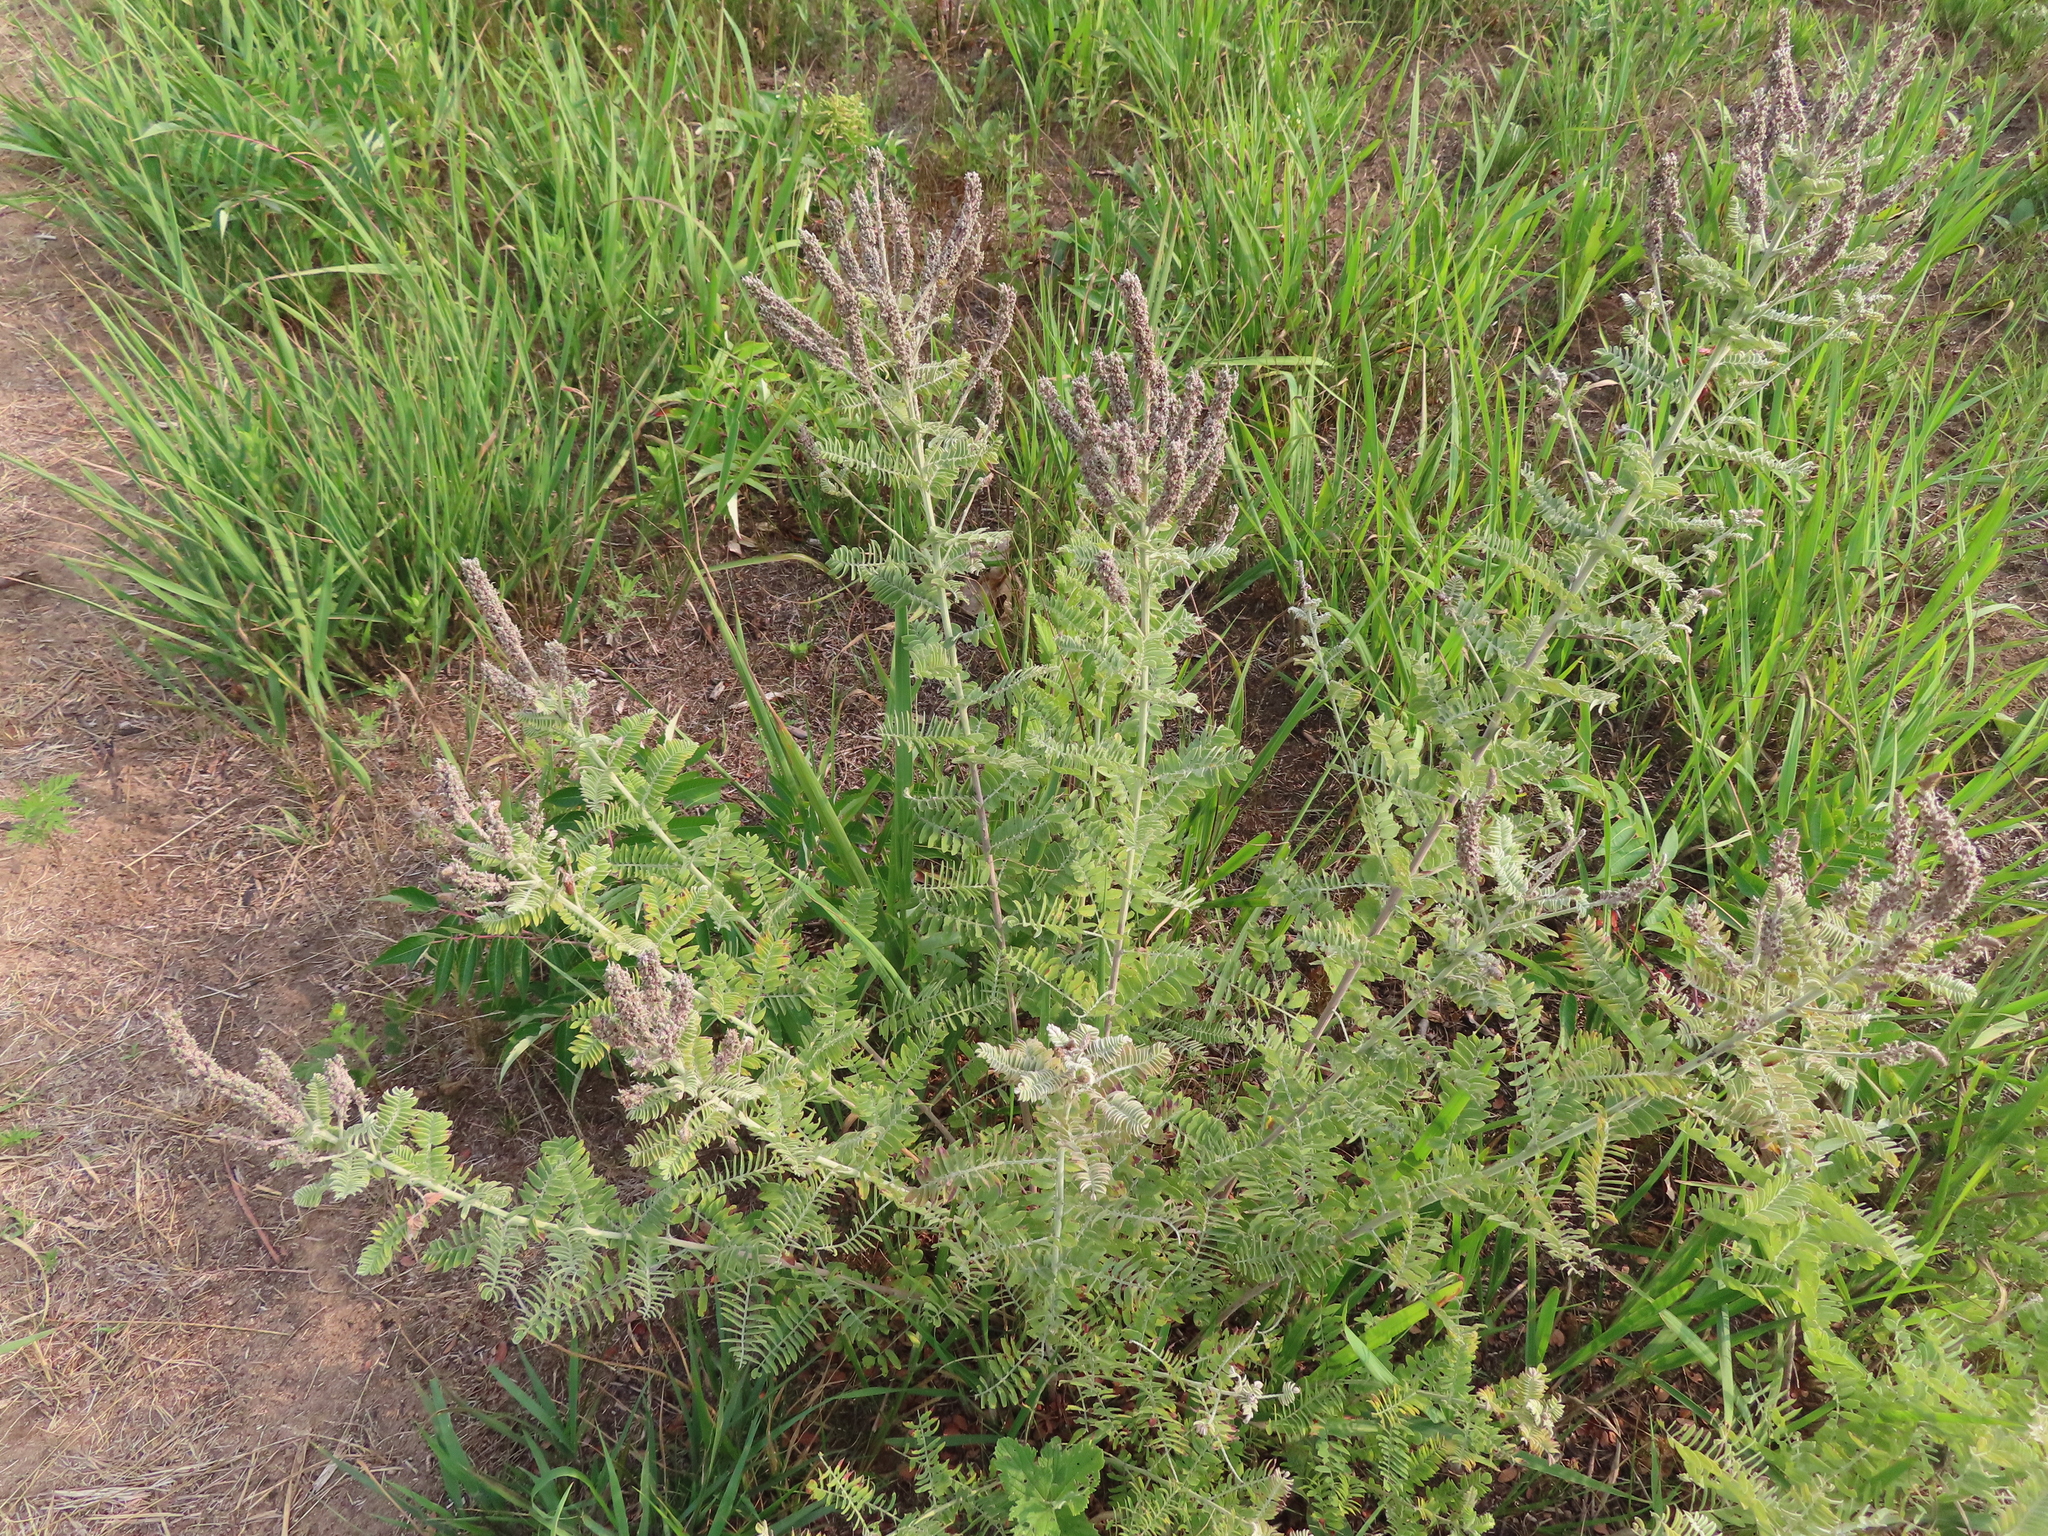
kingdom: Plantae
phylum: Tracheophyta
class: Magnoliopsida
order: Fabales
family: Fabaceae
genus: Amorpha
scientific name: Amorpha canescens
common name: Leadplant
